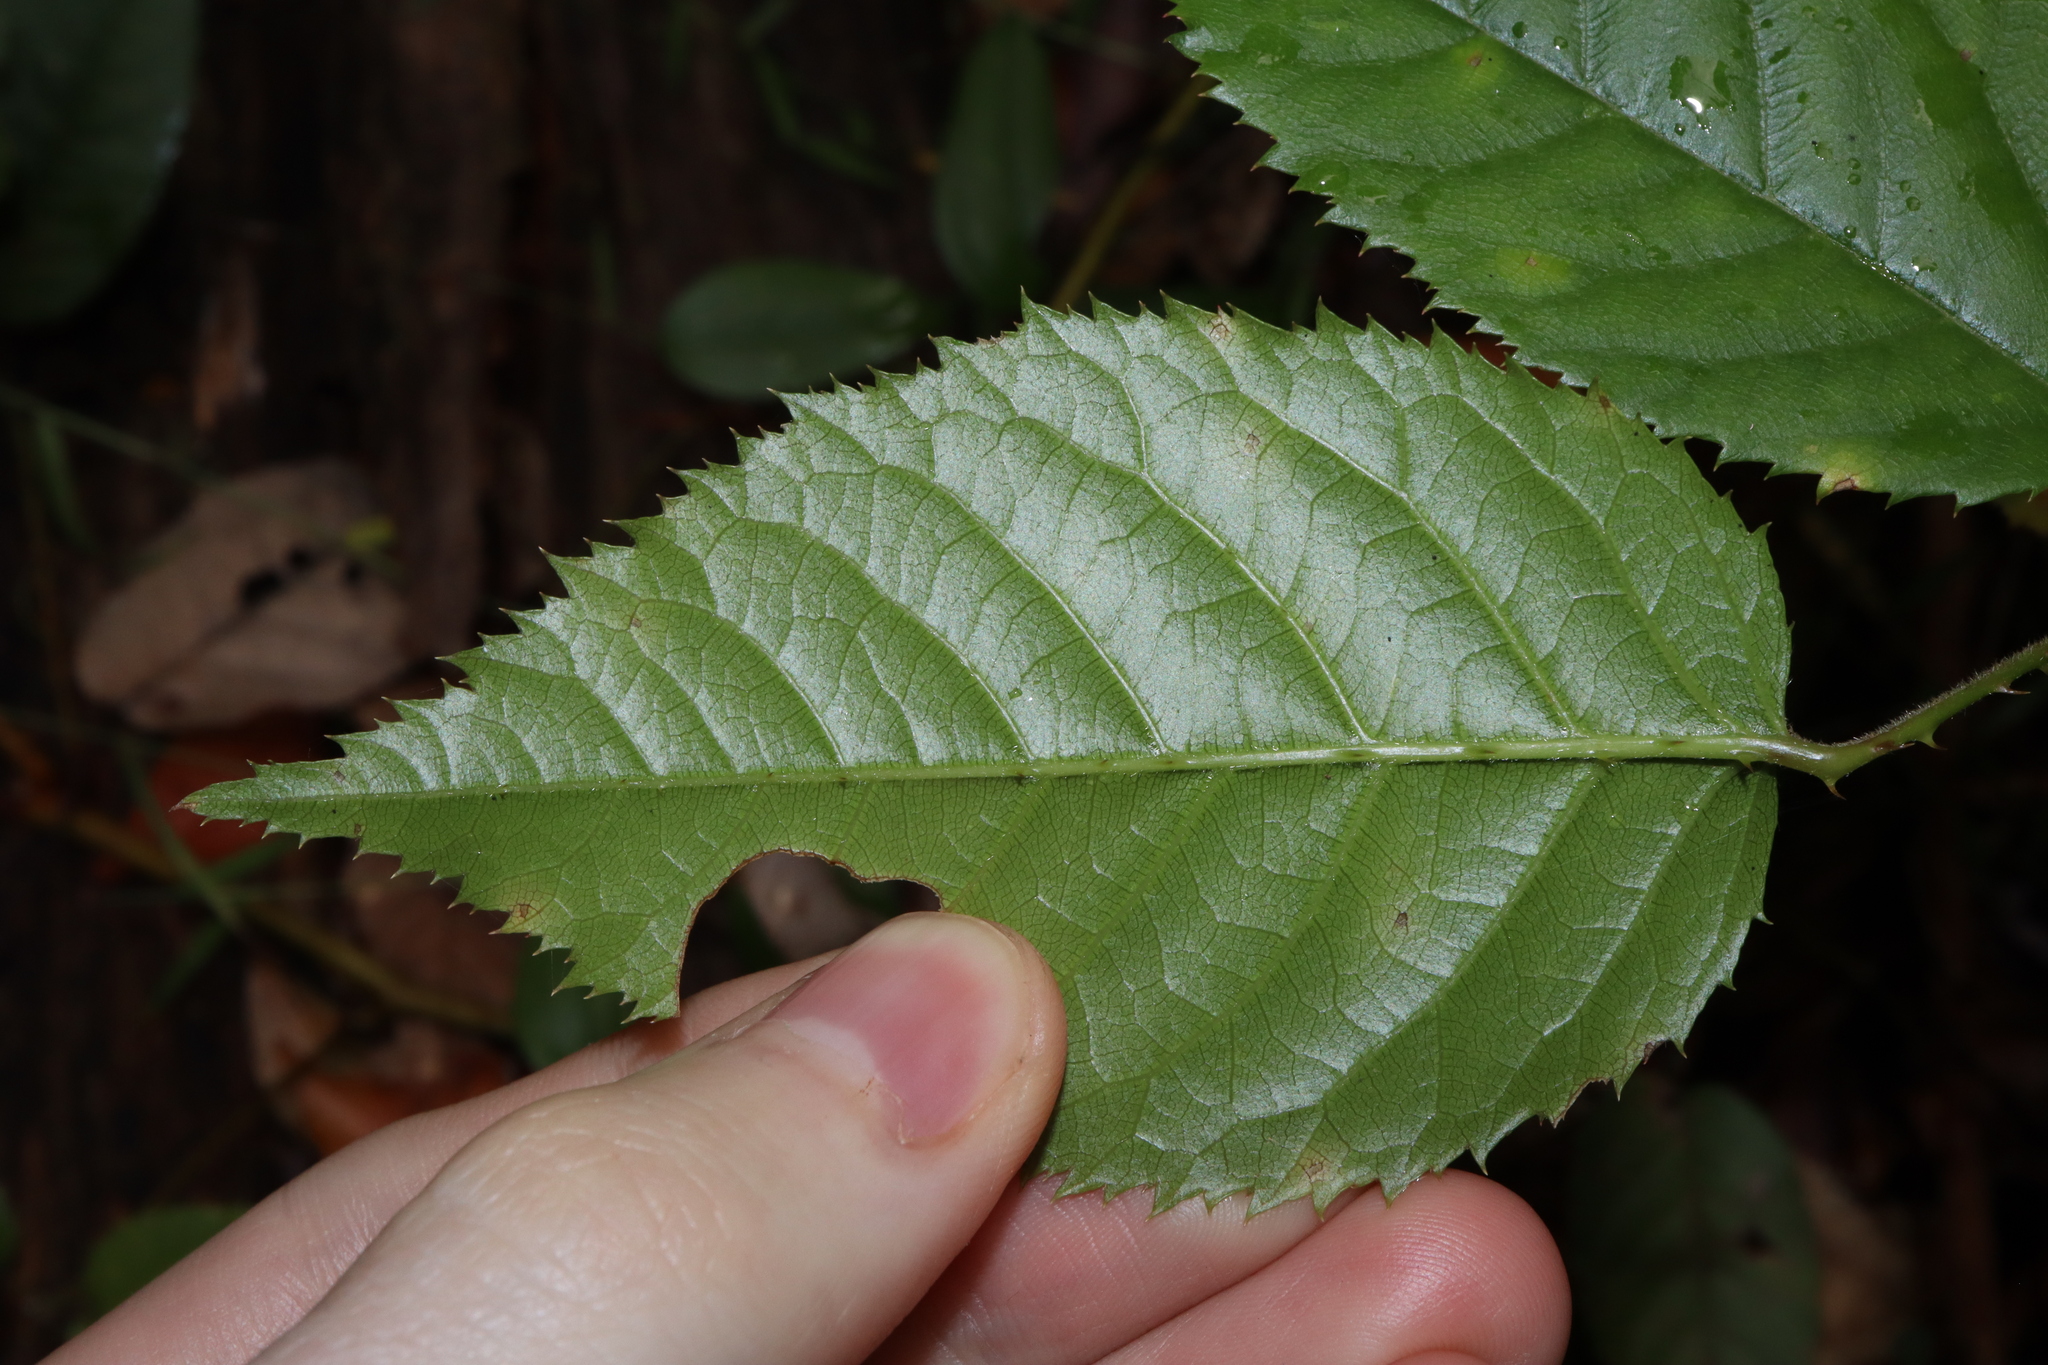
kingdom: Plantae
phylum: Tracheophyta
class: Magnoliopsida
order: Rosales
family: Rosaceae
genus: Rubus
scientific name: Rubus nebulosus
